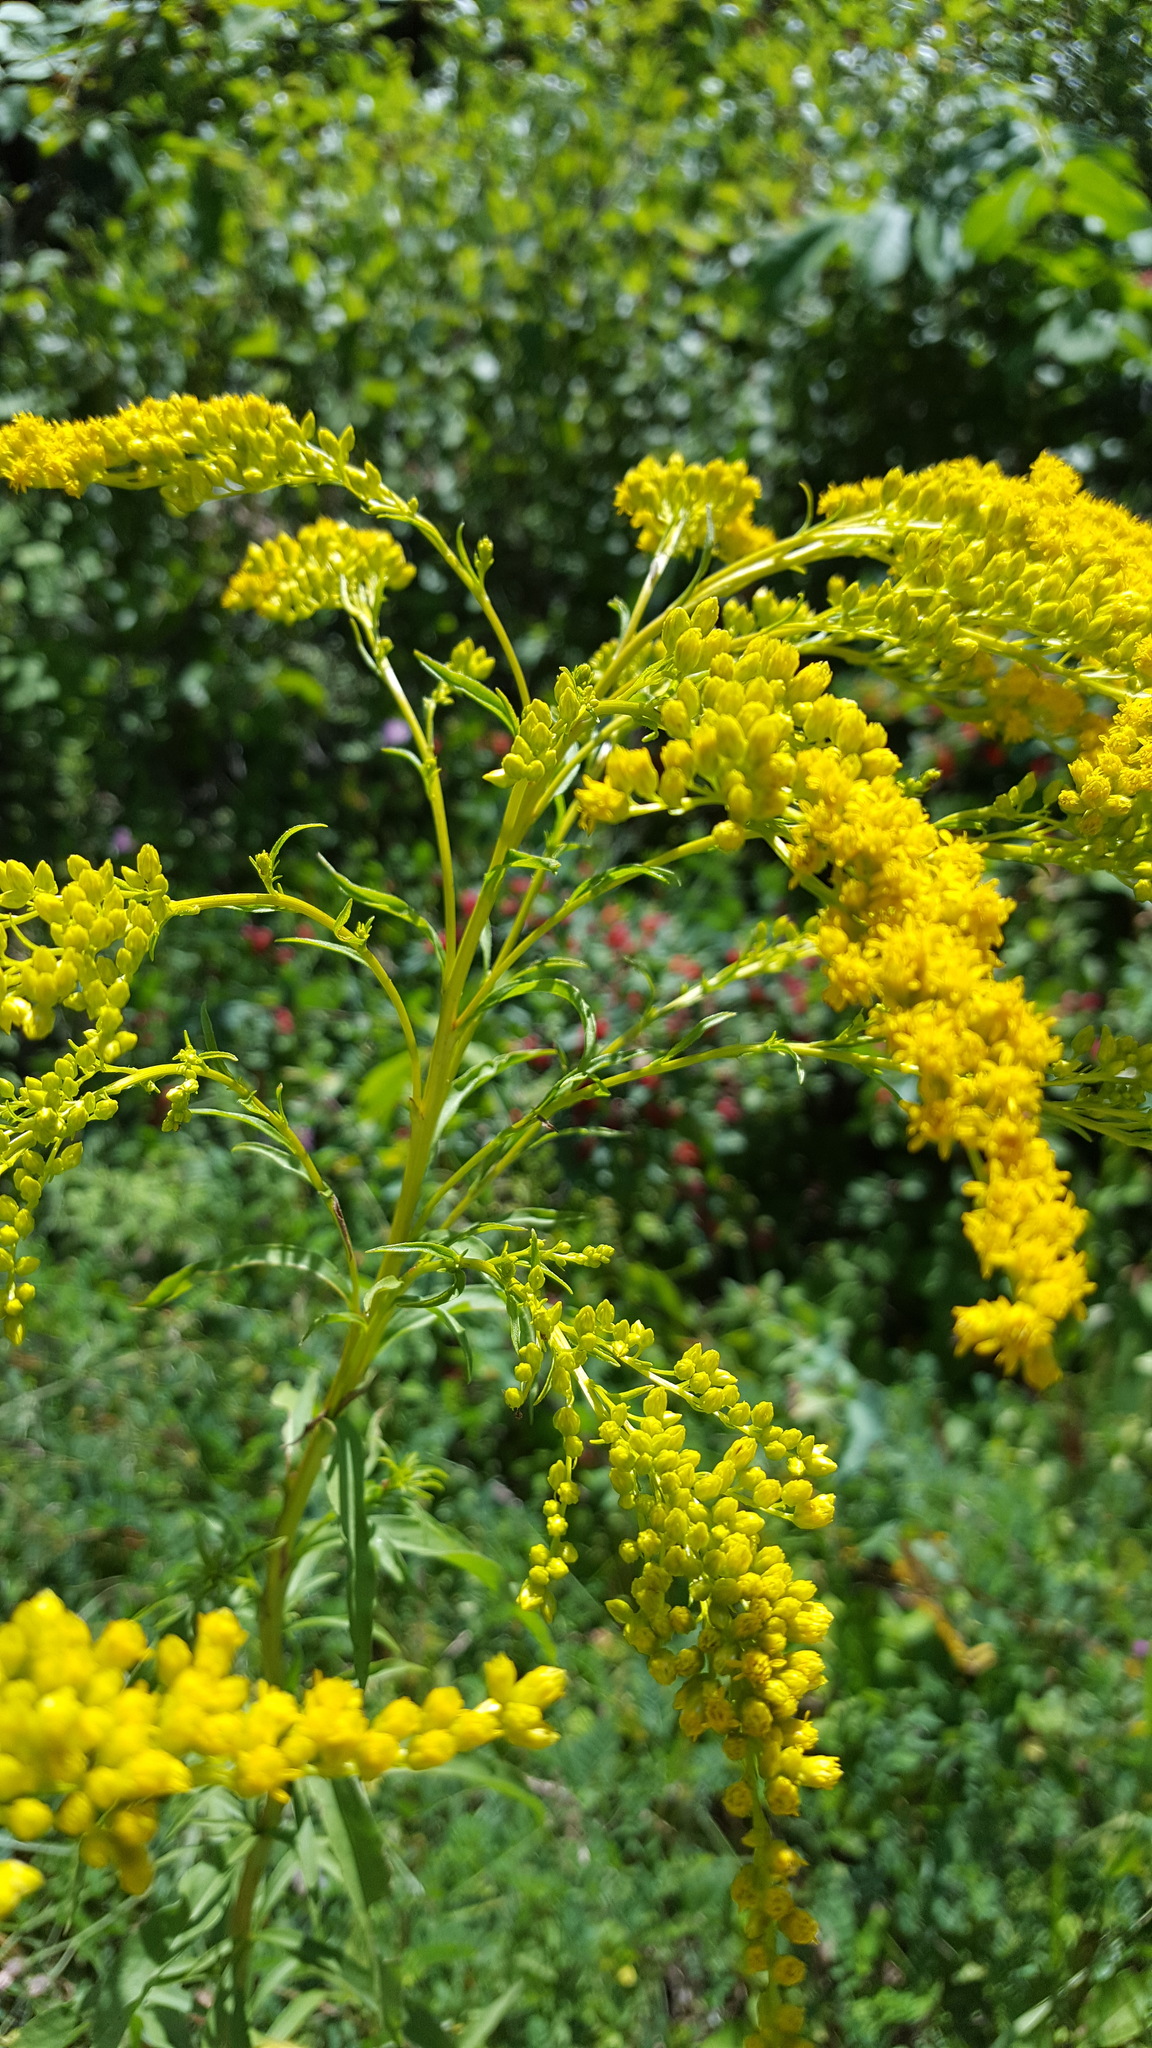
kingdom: Plantae
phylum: Tracheophyta
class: Magnoliopsida
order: Asterales
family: Asteraceae
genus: Solidago
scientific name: Solidago juncea
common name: Early goldenrod
